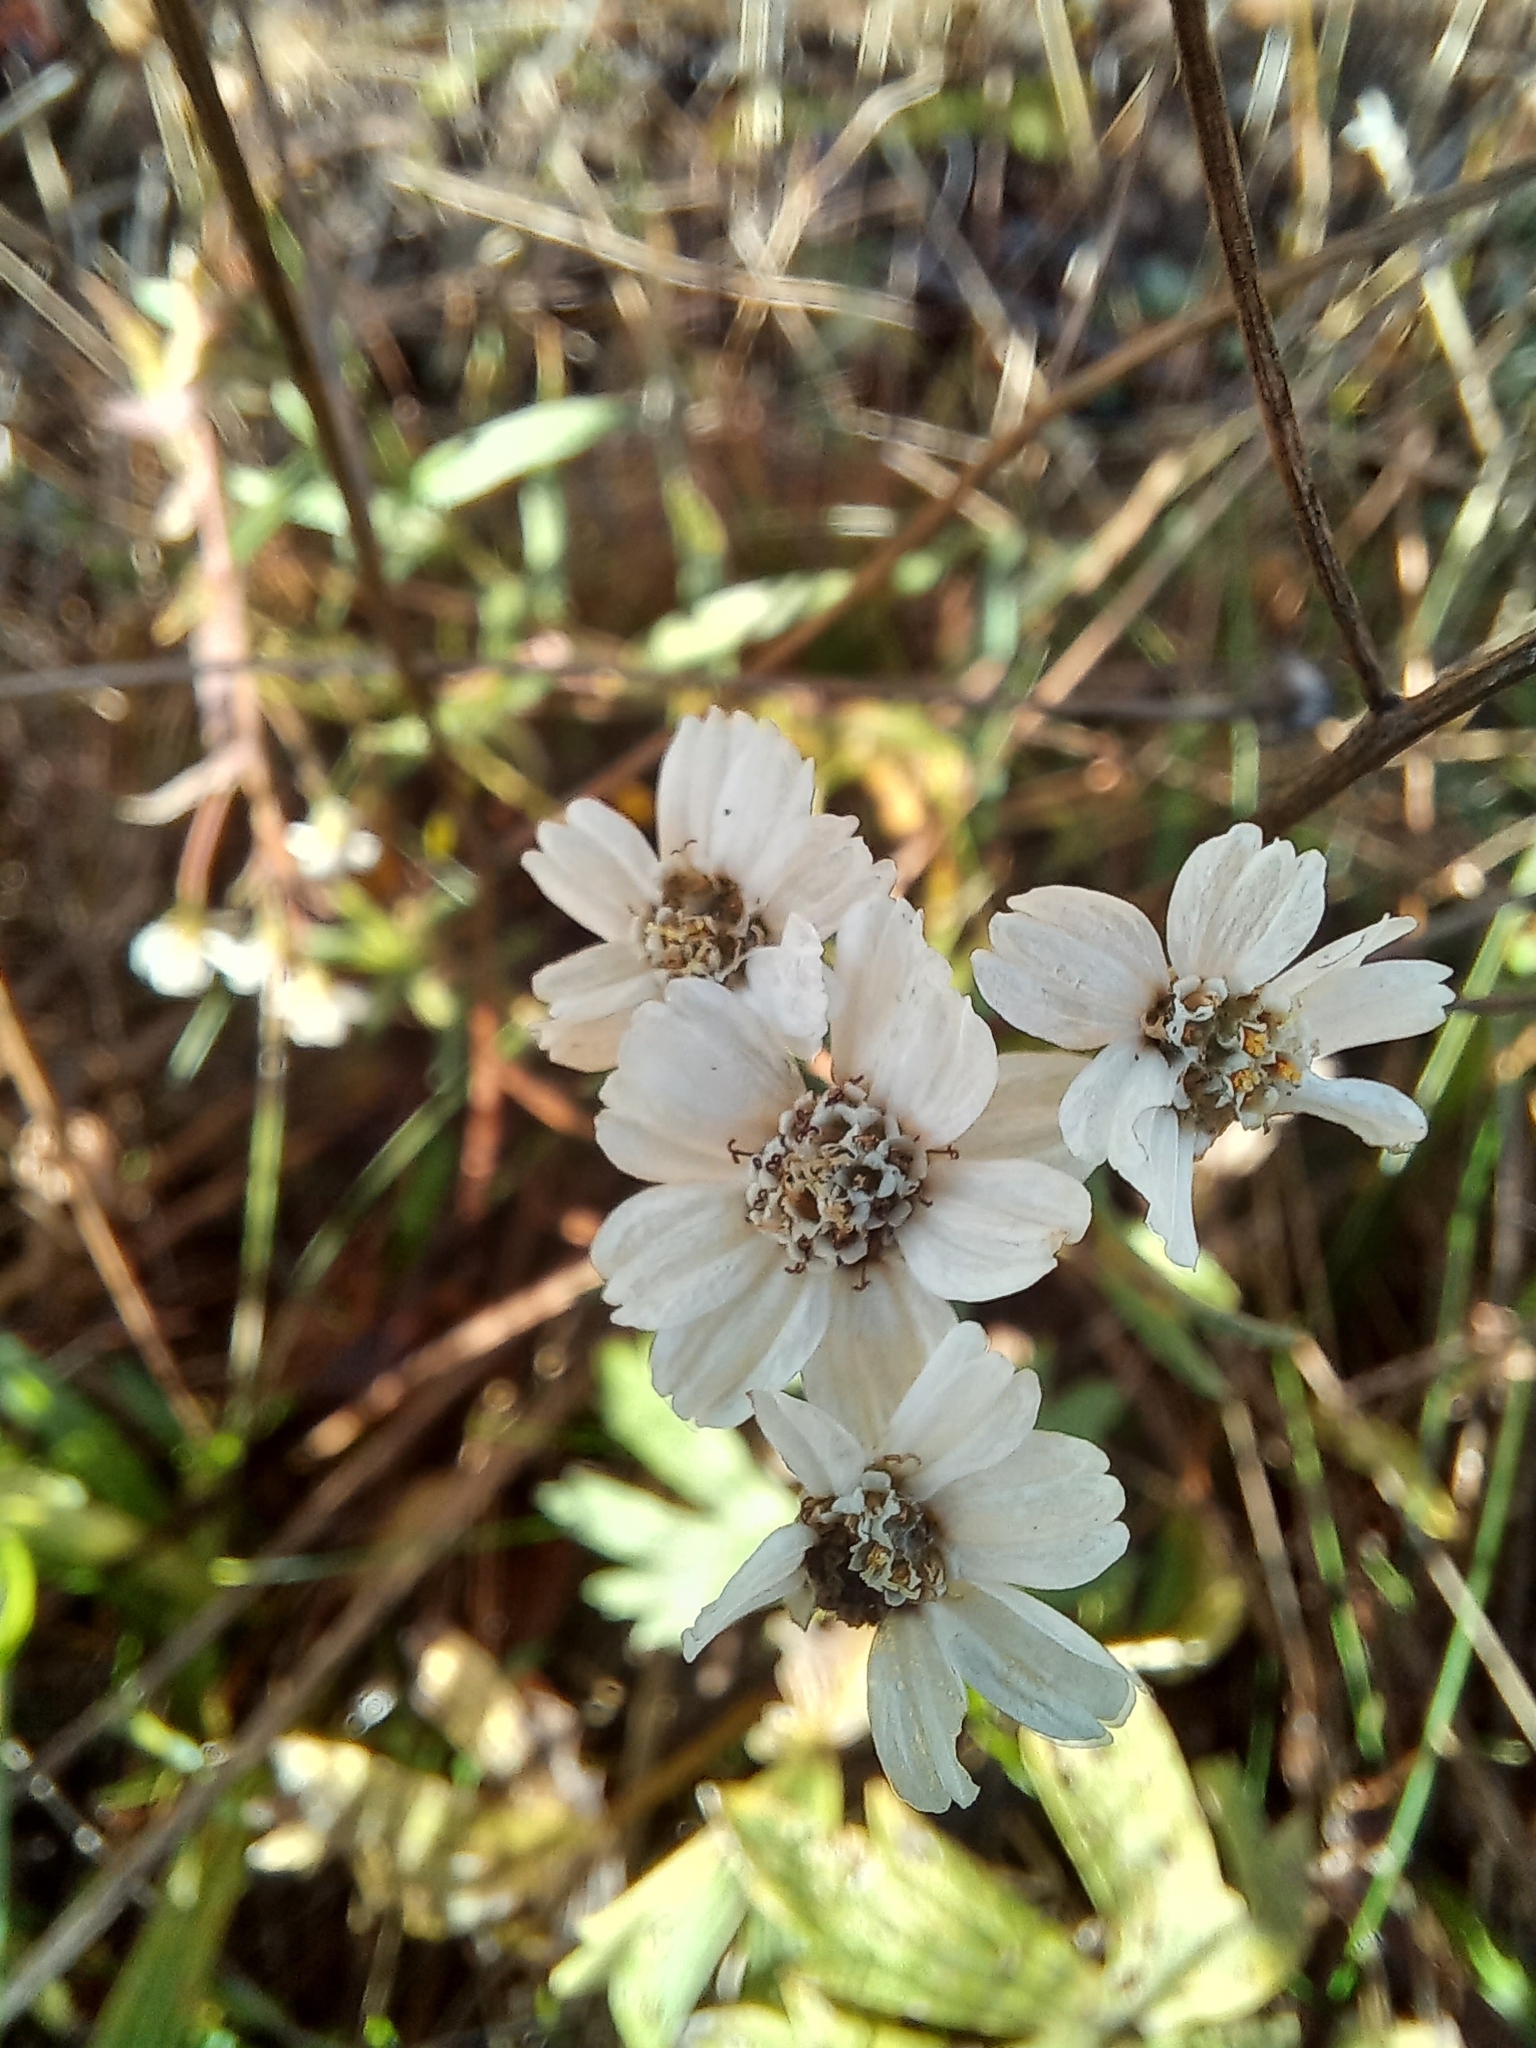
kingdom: Plantae
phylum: Tracheophyta
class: Magnoliopsida
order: Asterales
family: Asteraceae
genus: Achillea
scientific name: Achillea ptarmica
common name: Sneezeweed
